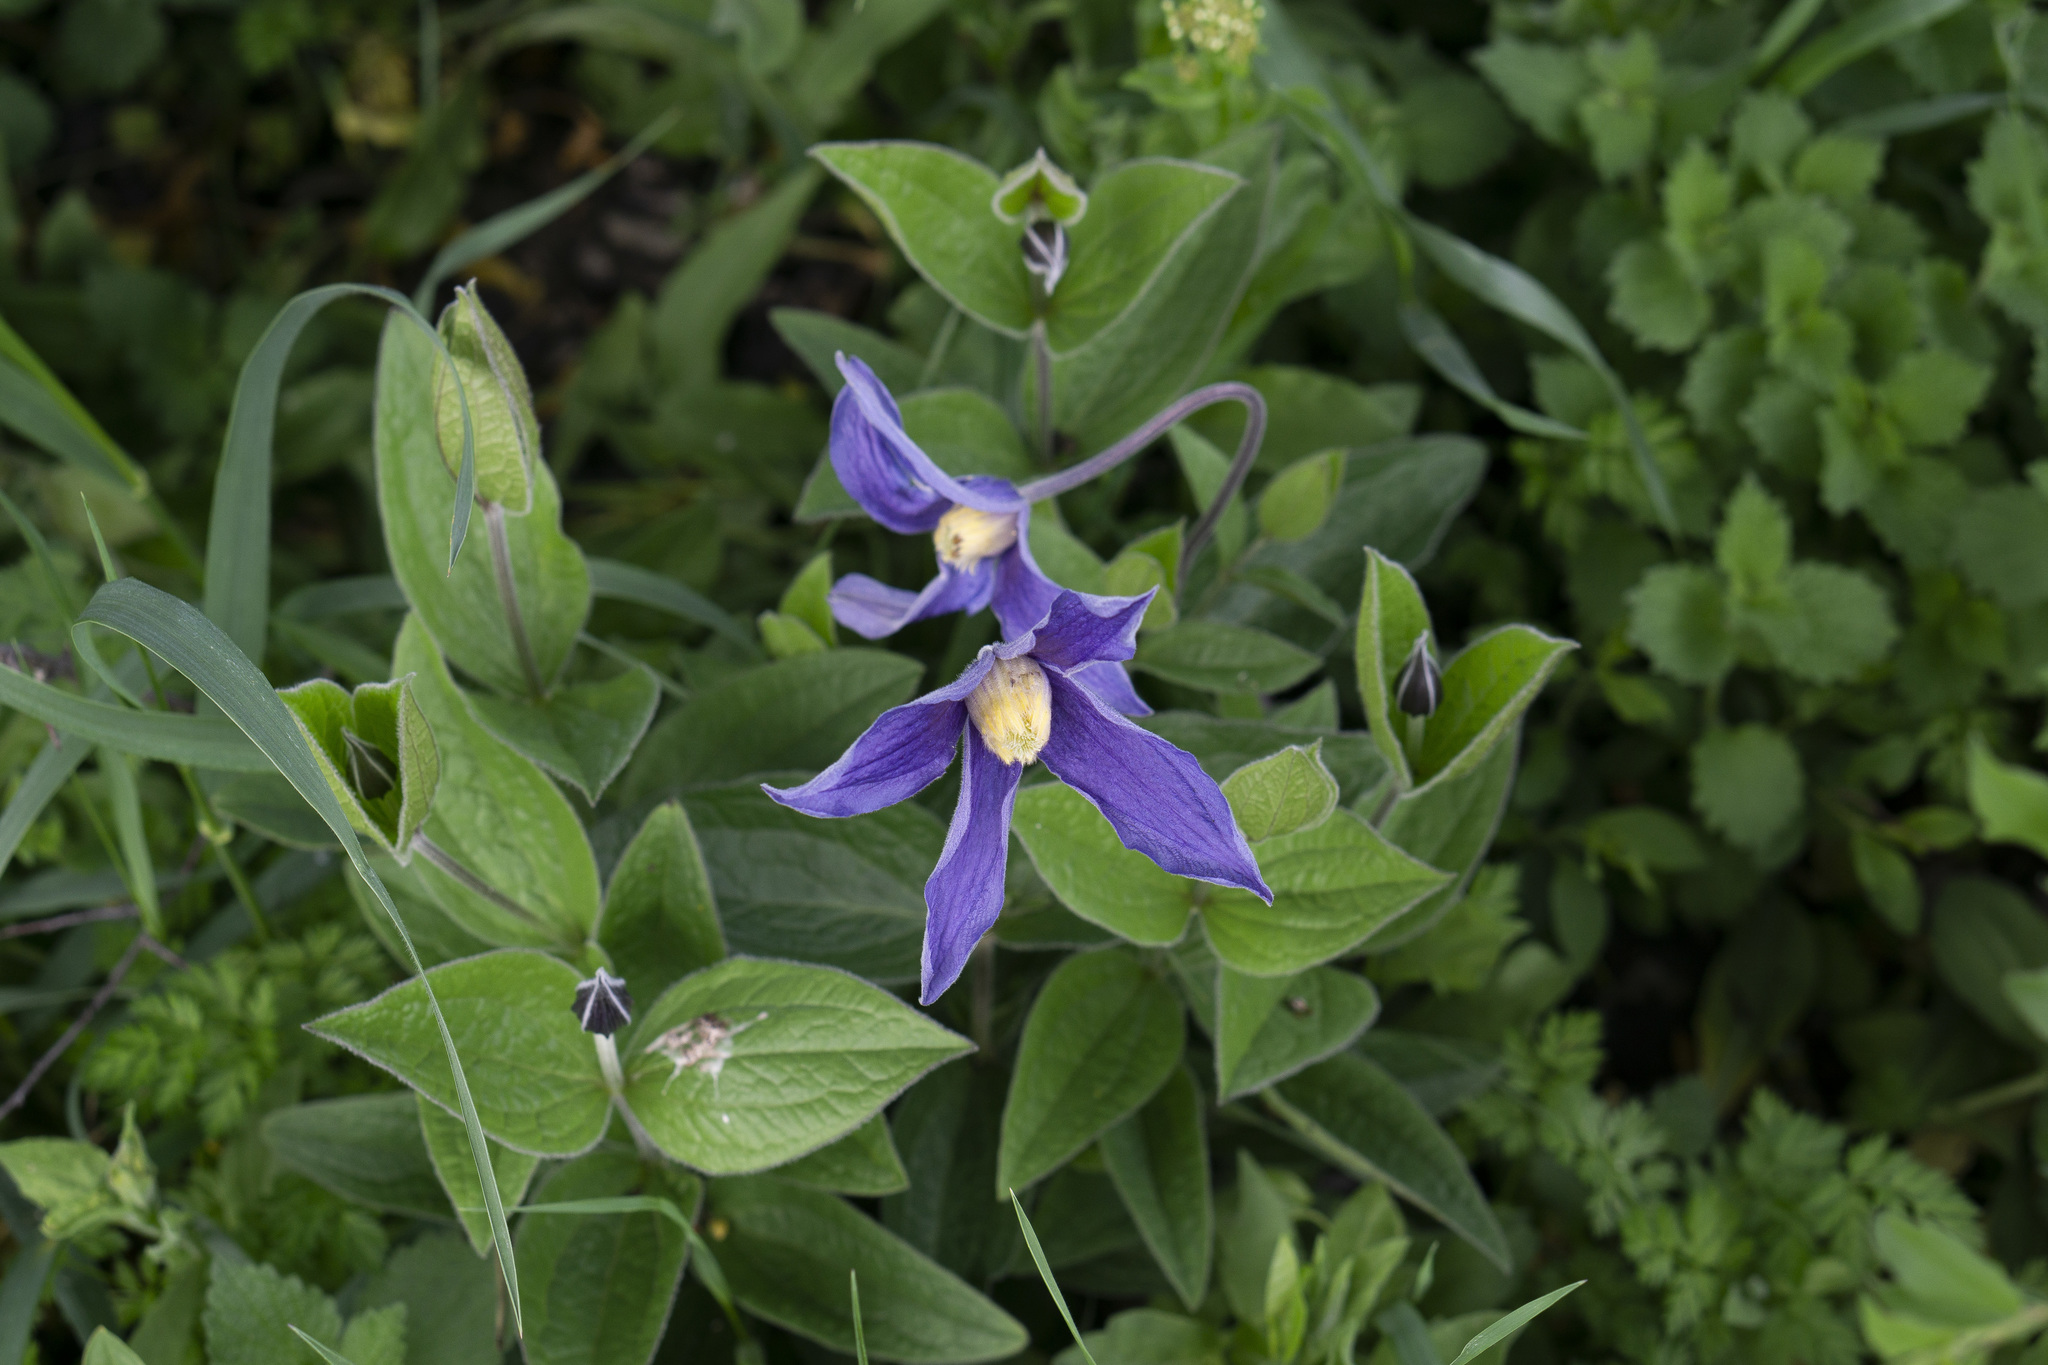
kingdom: Plantae
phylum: Tracheophyta
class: Magnoliopsida
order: Ranunculales
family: Ranunculaceae
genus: Clematis
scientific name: Clematis integrifolia
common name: Solitary clematis
